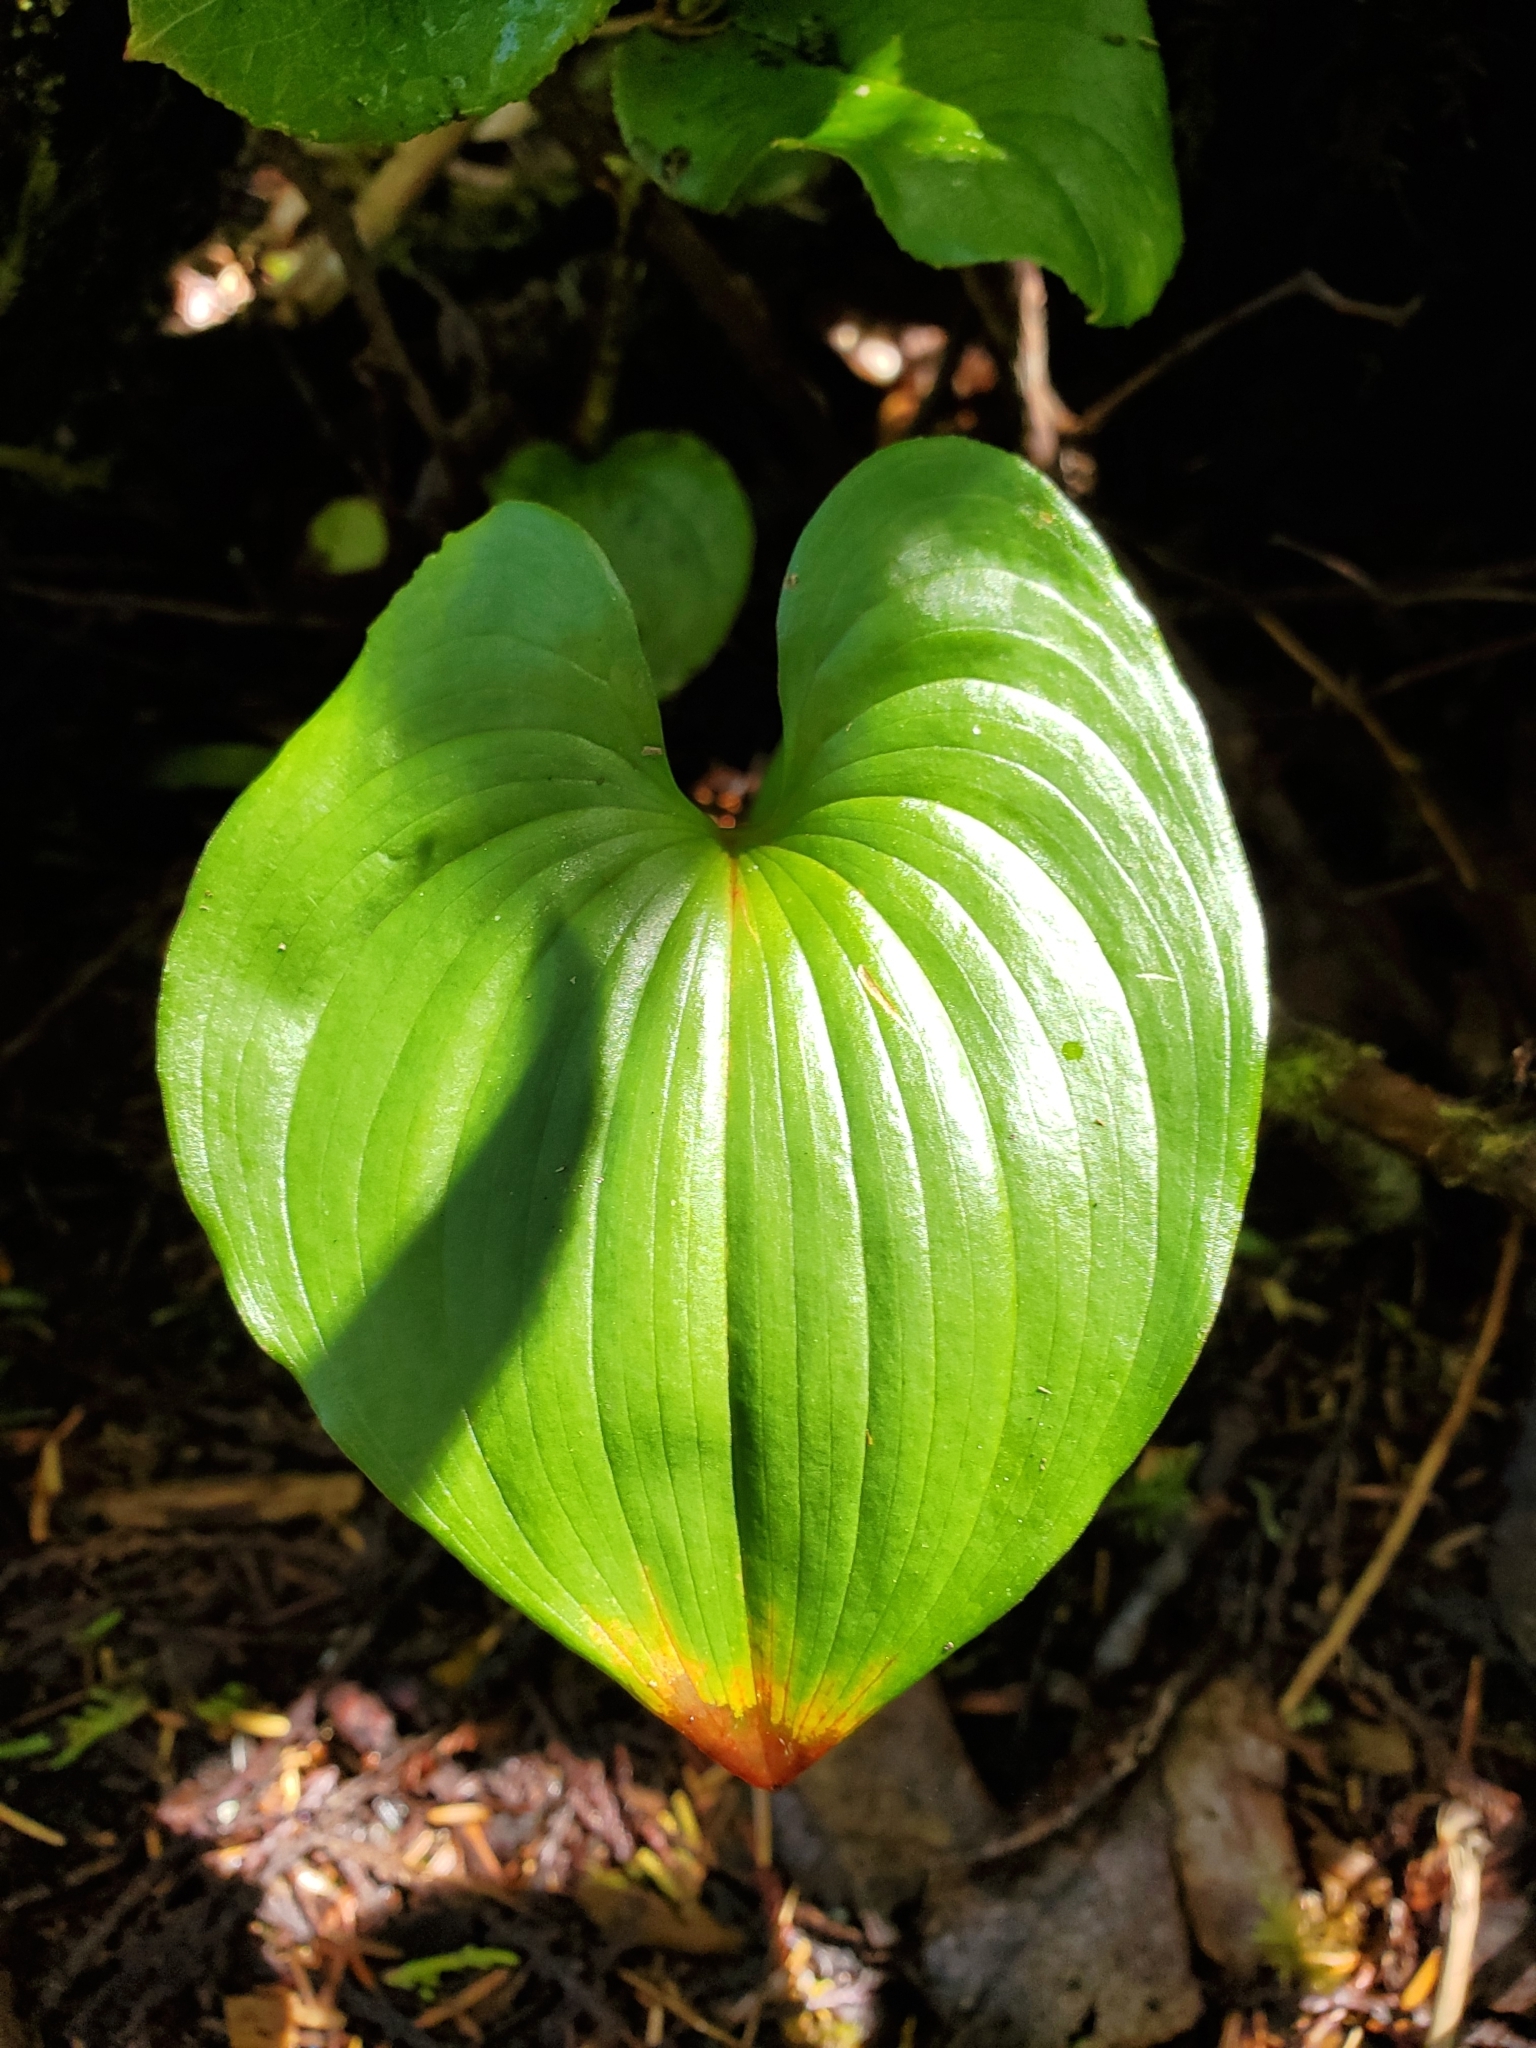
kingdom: Plantae
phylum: Tracheophyta
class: Liliopsida
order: Asparagales
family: Asparagaceae
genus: Maianthemum
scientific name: Maianthemum dilatatum
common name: False lily-of-the-valley
